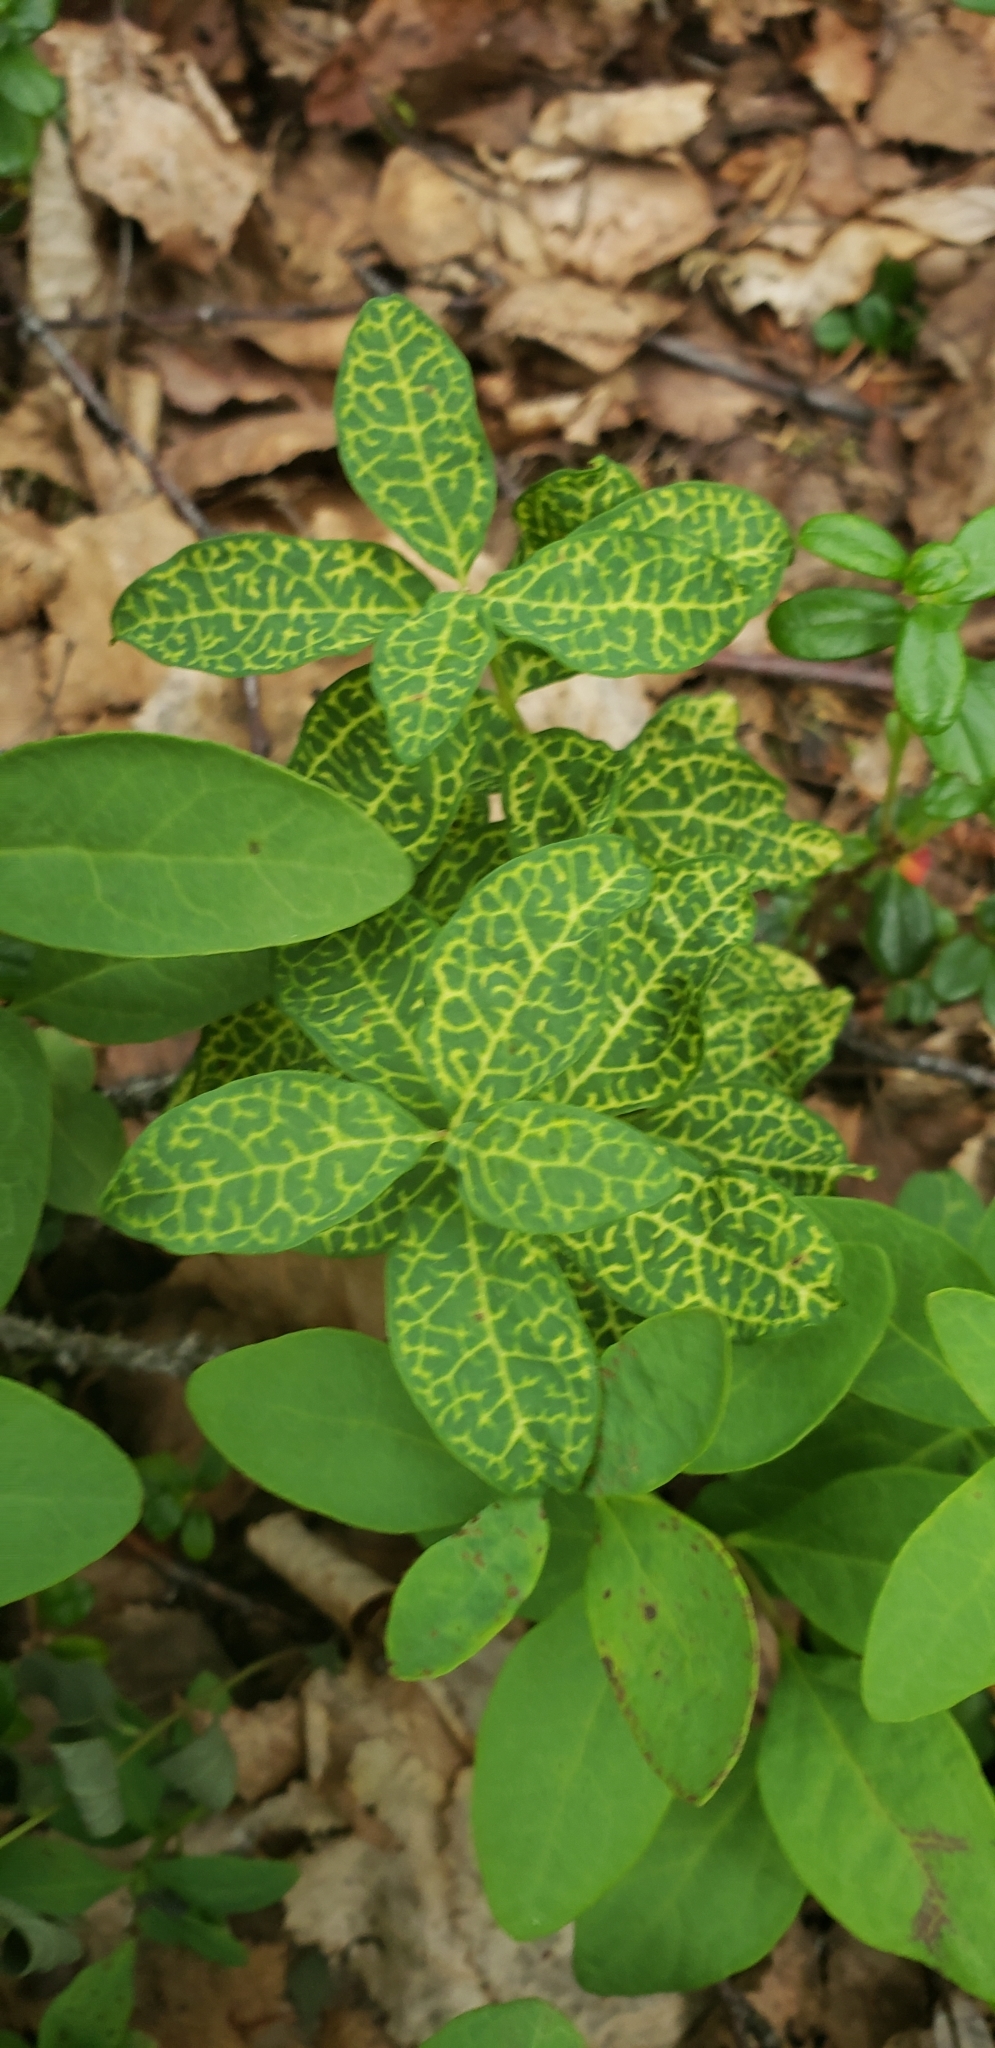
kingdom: Plantae
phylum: Tracheophyta
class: Magnoliopsida
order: Santalales
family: Comandraceae
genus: Geocaulon
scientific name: Geocaulon lividum
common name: Earthberry
